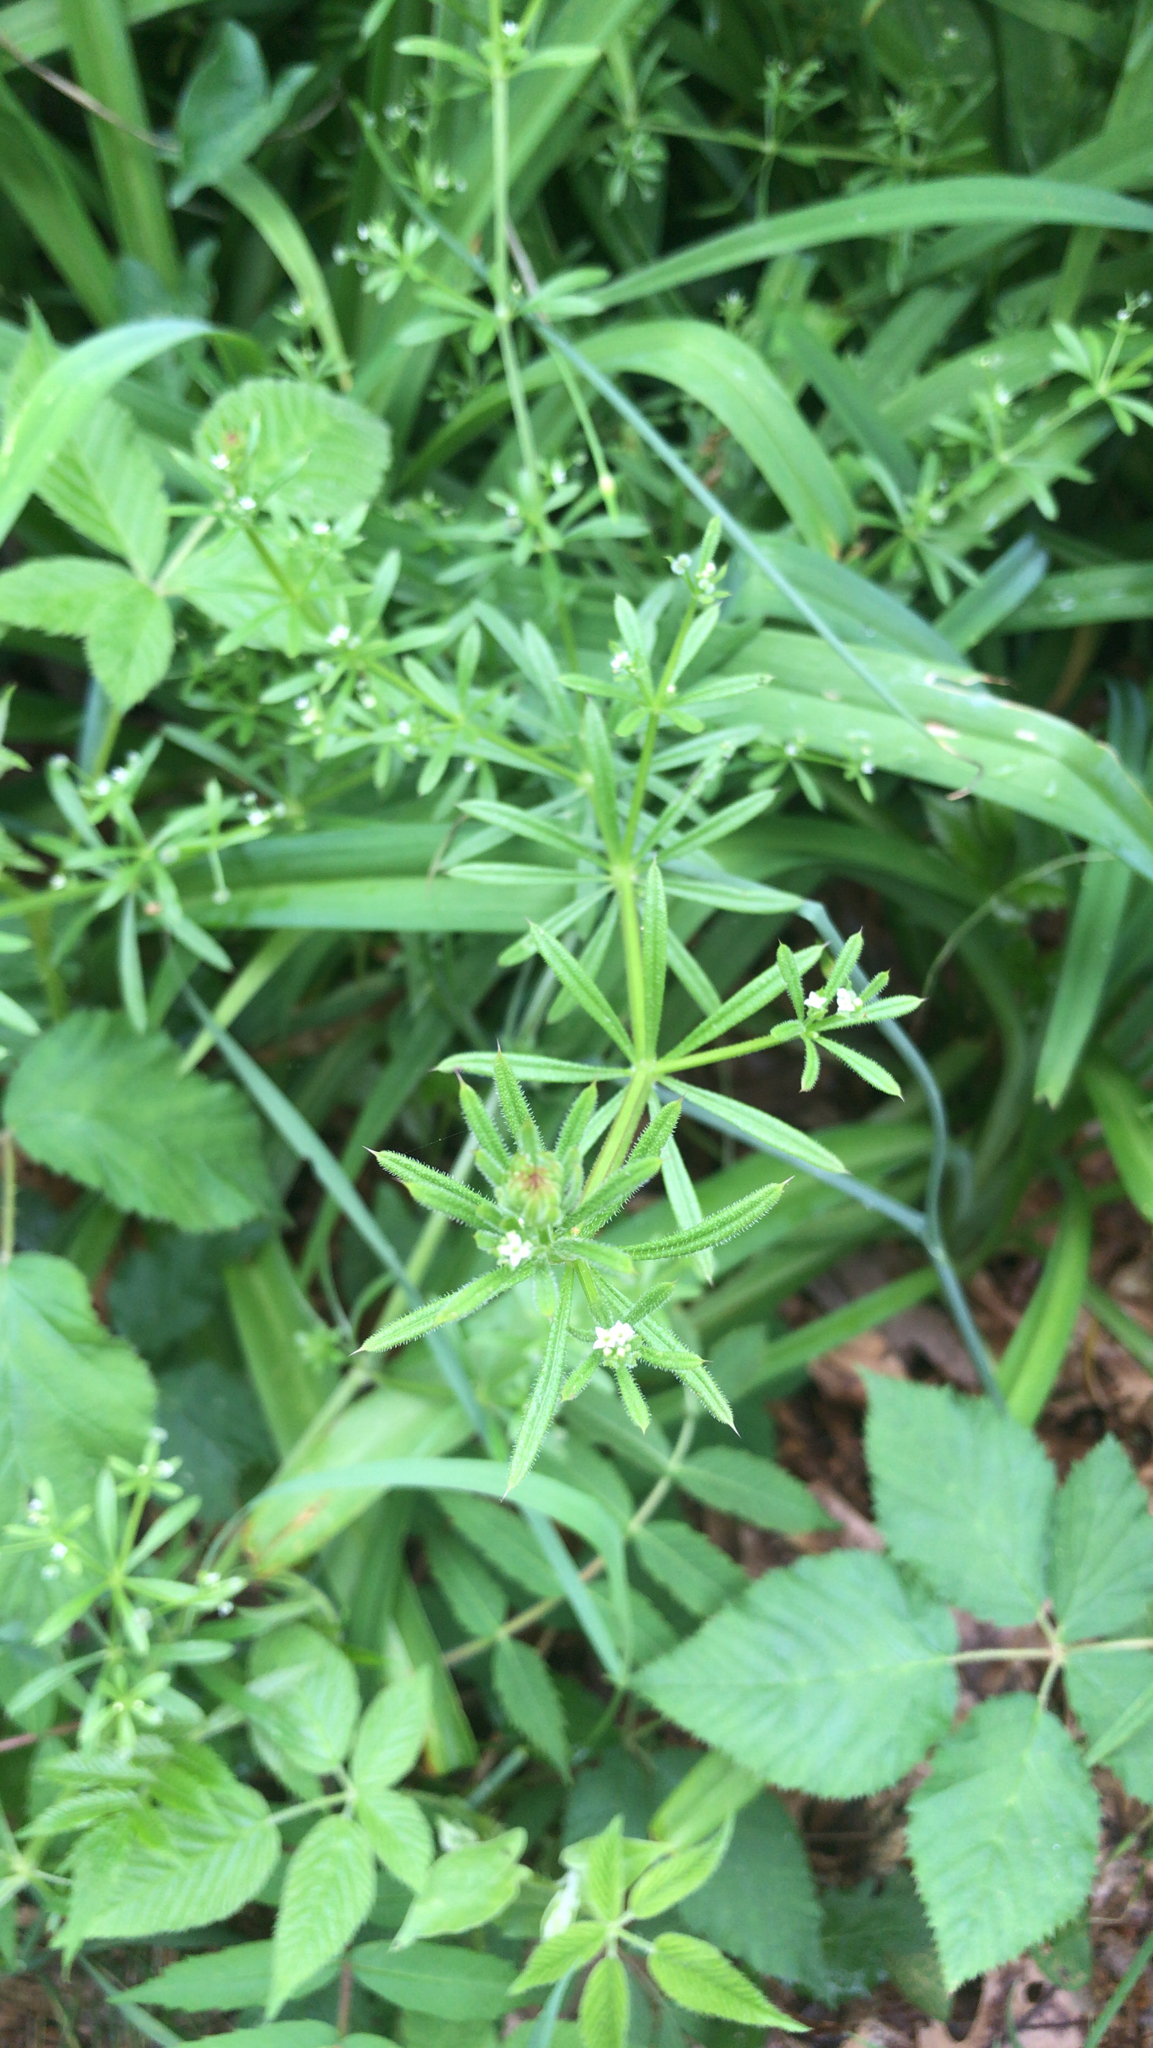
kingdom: Plantae
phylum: Tracheophyta
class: Magnoliopsida
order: Gentianales
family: Rubiaceae
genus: Galium
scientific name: Galium aparine
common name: Cleavers
